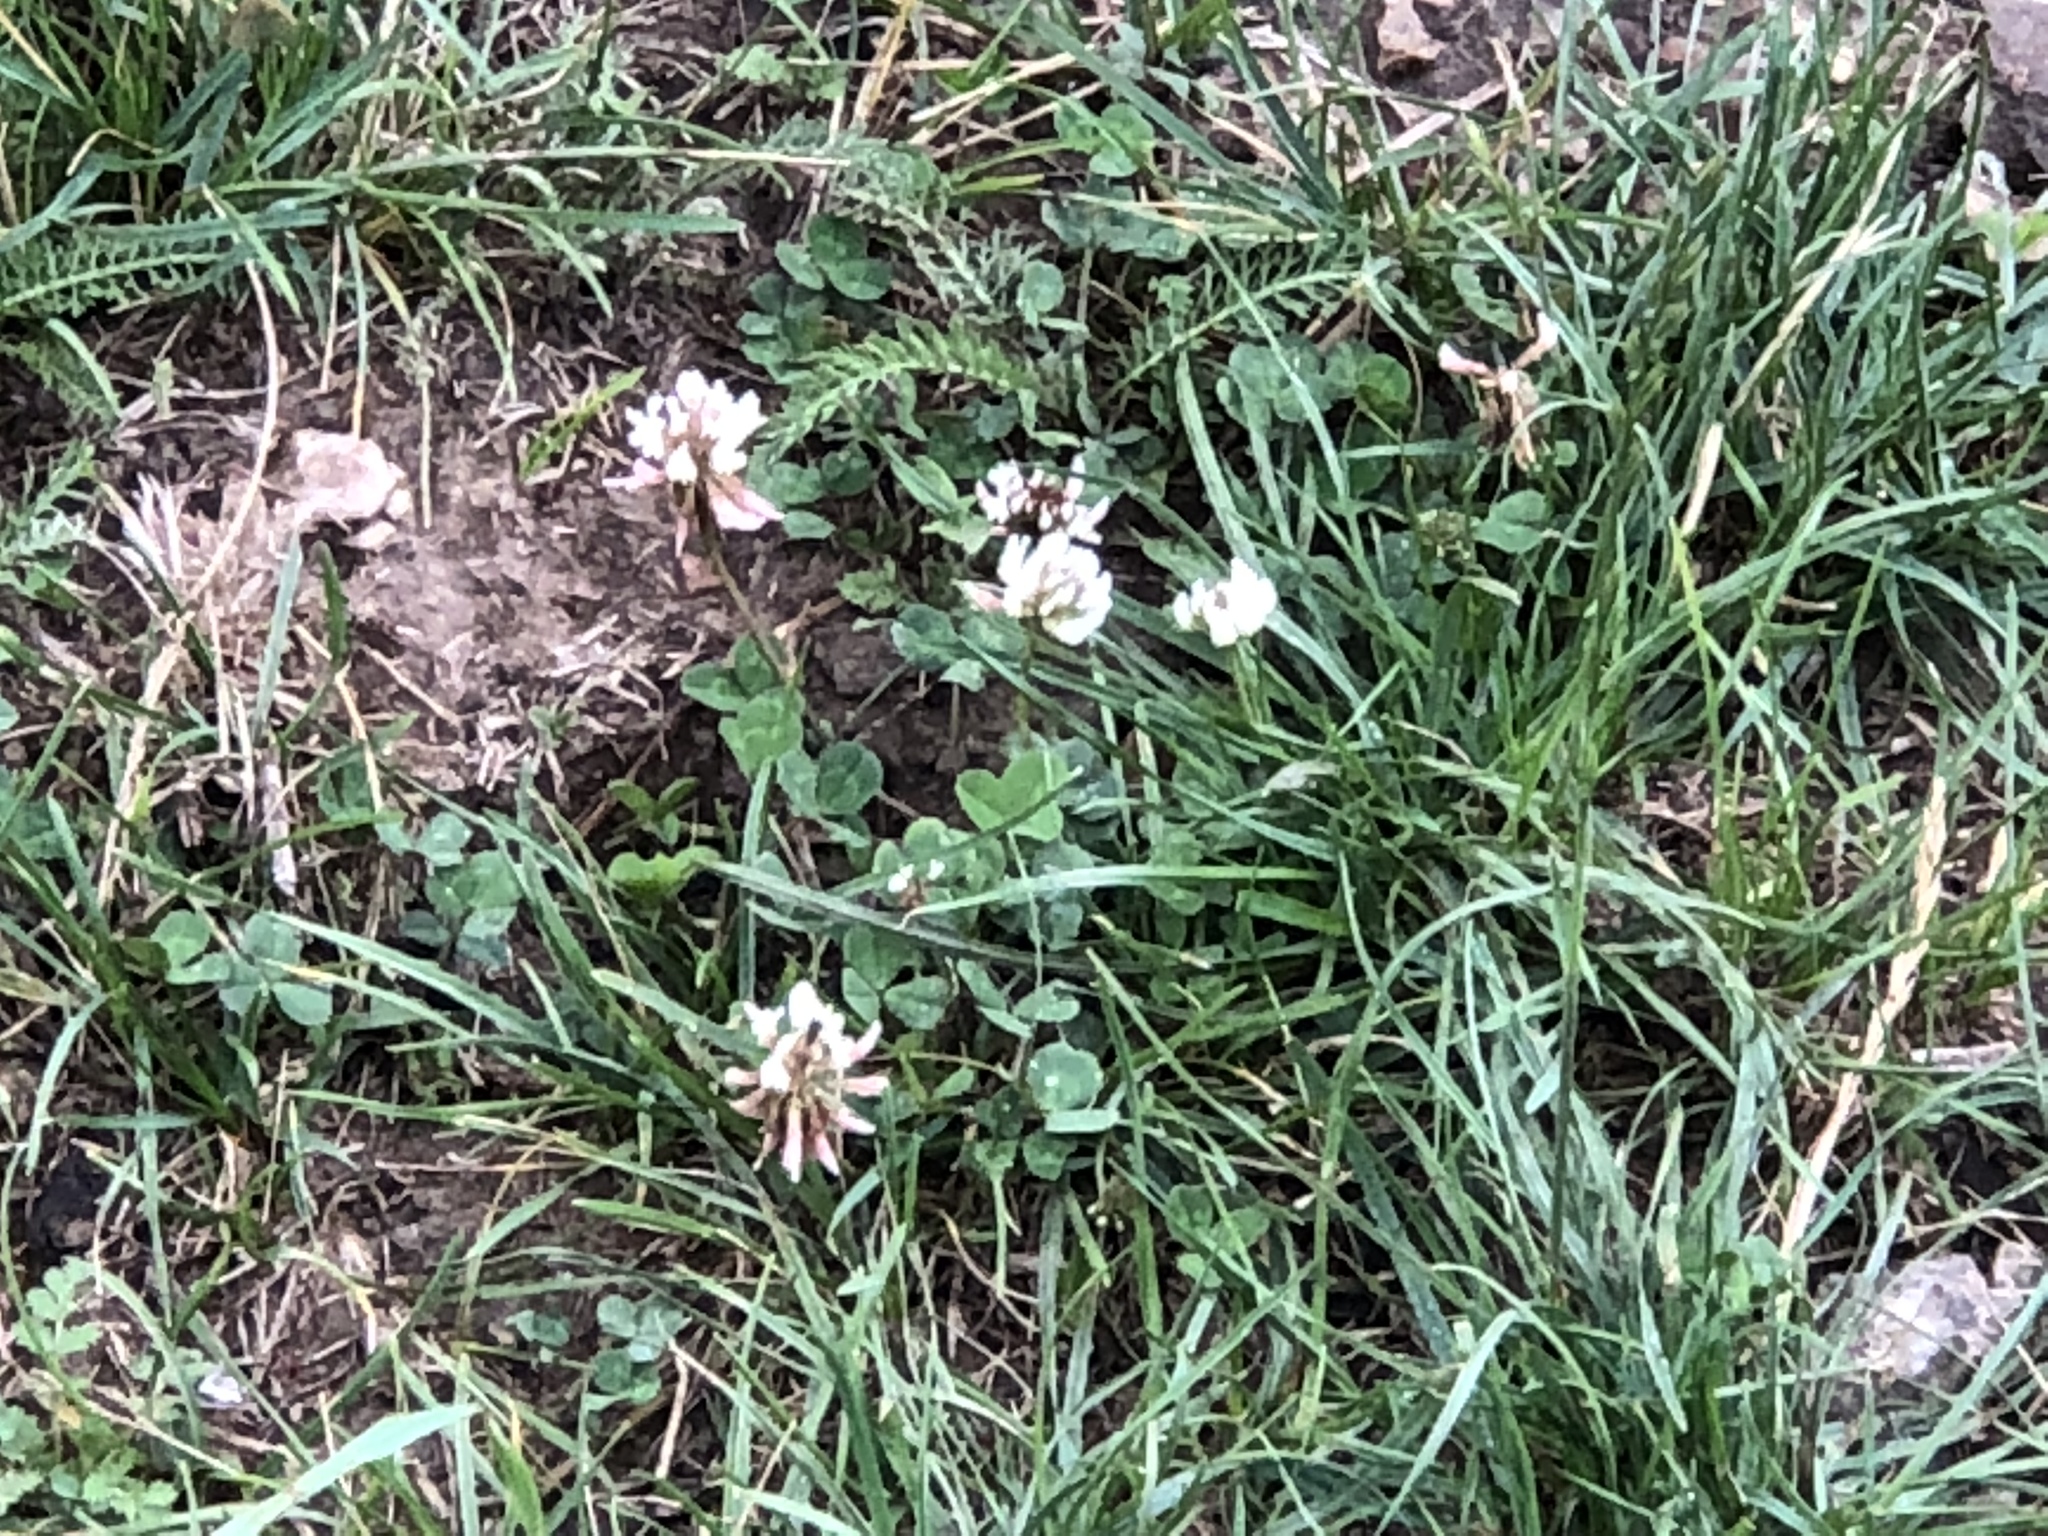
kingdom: Plantae
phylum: Tracheophyta
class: Magnoliopsida
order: Fabales
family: Fabaceae
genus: Trifolium
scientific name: Trifolium repens
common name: White clover
